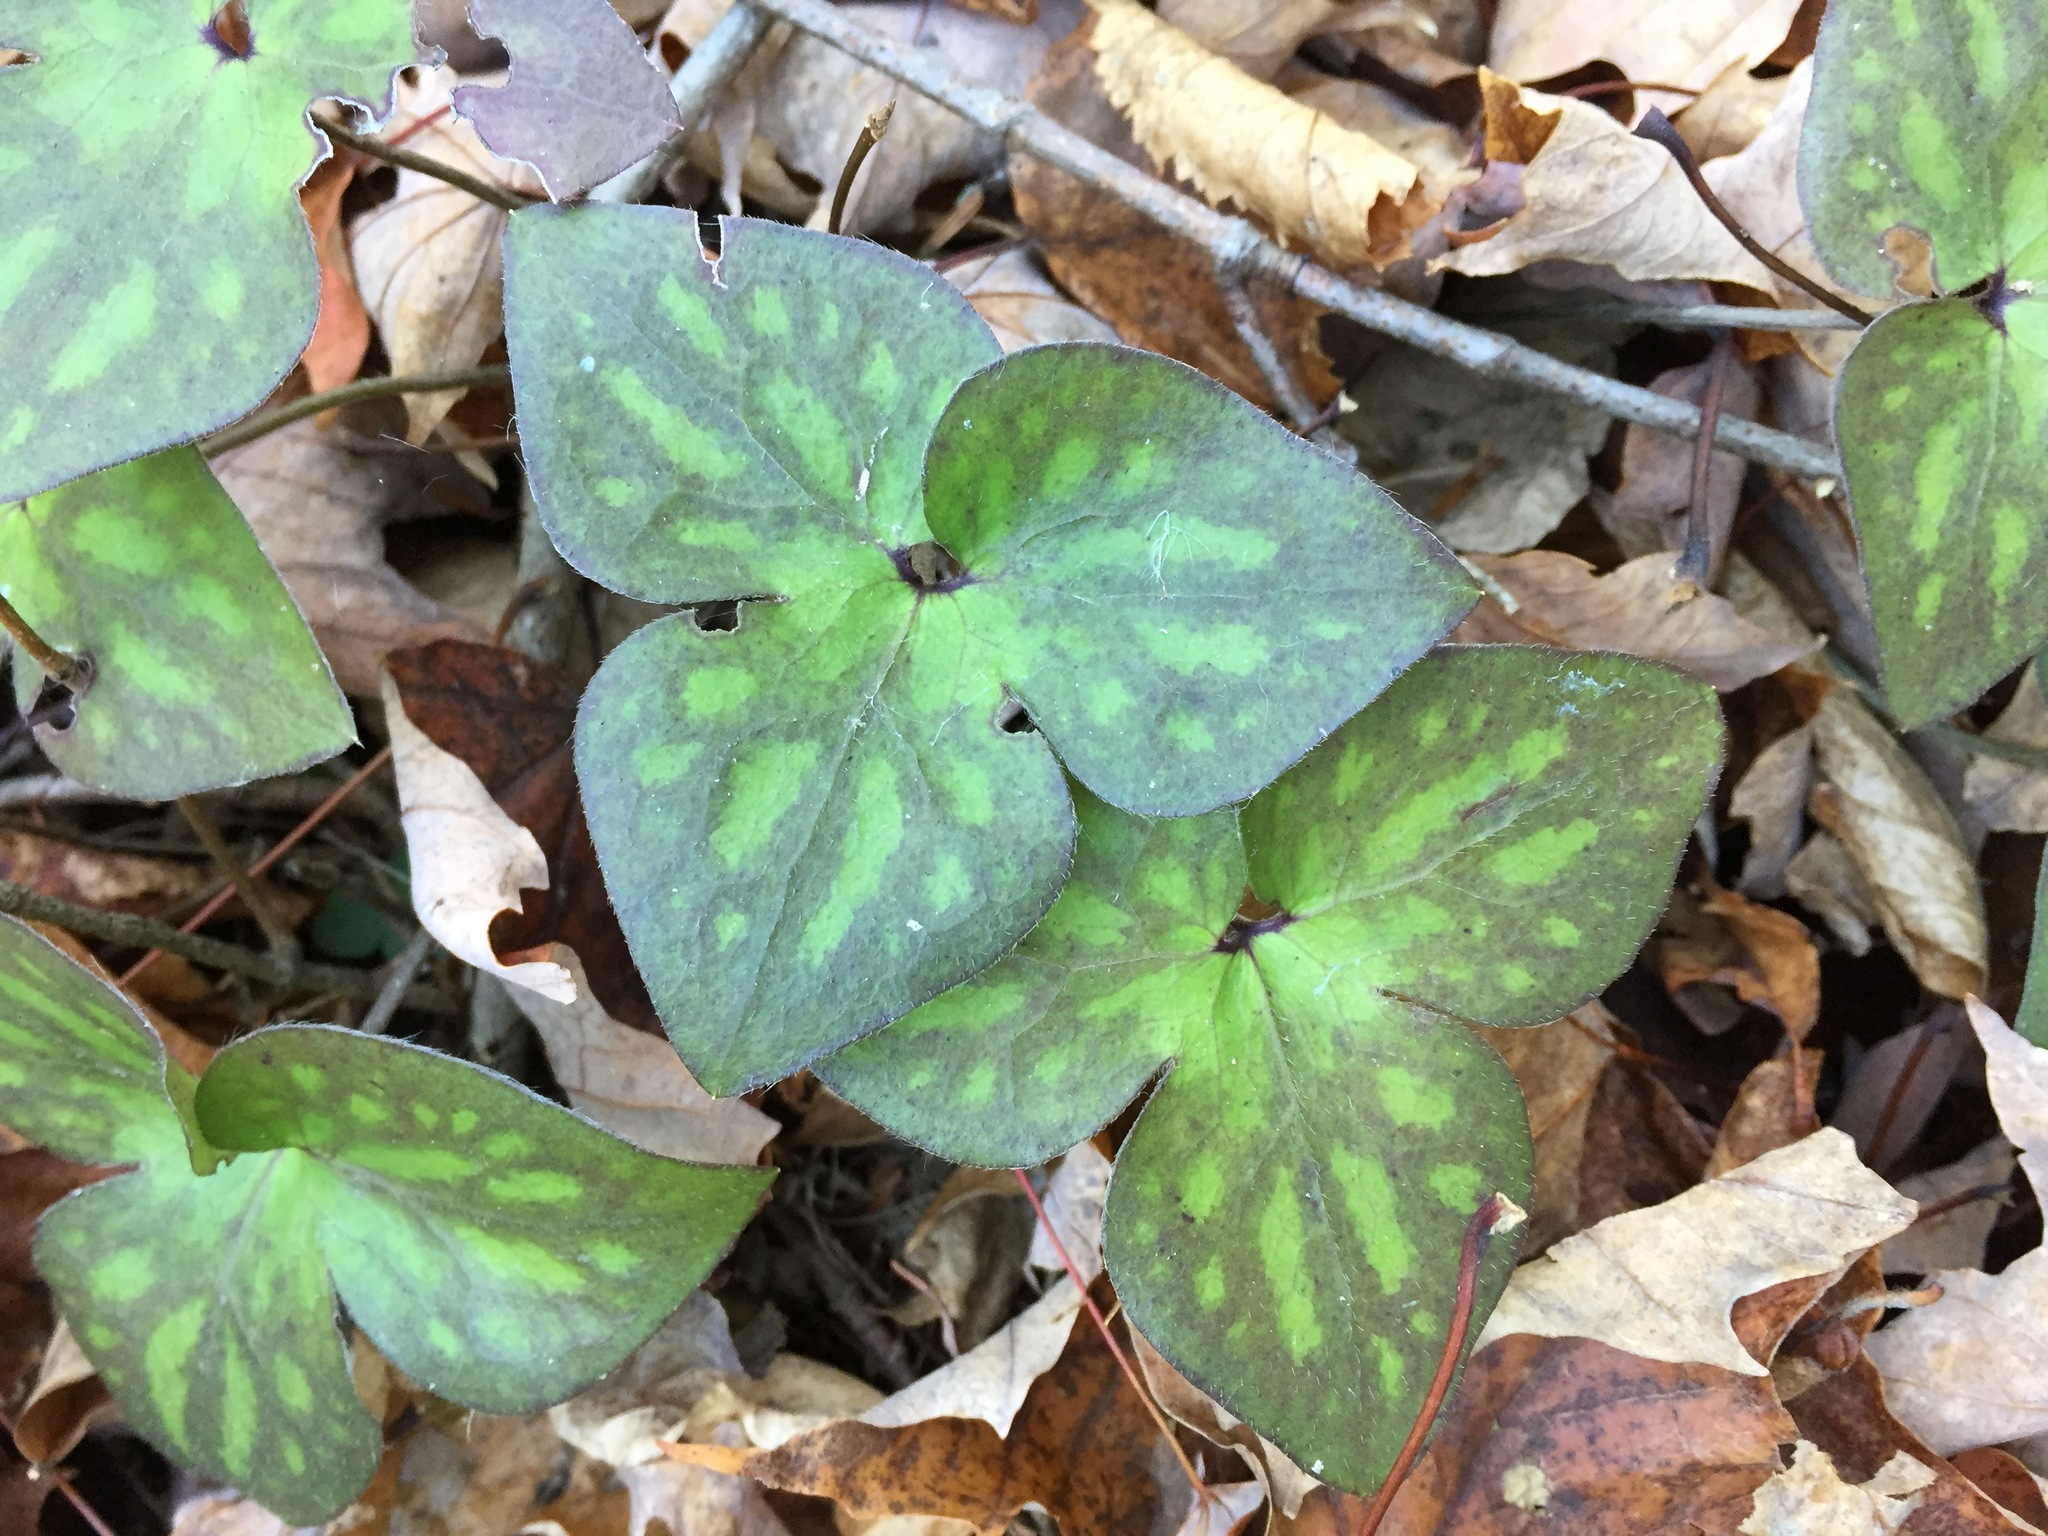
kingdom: Plantae
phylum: Tracheophyta
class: Magnoliopsida
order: Ranunculales
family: Ranunculaceae
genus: Hepatica
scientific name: Hepatica acutiloba
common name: Sharp-lobed hepatica
